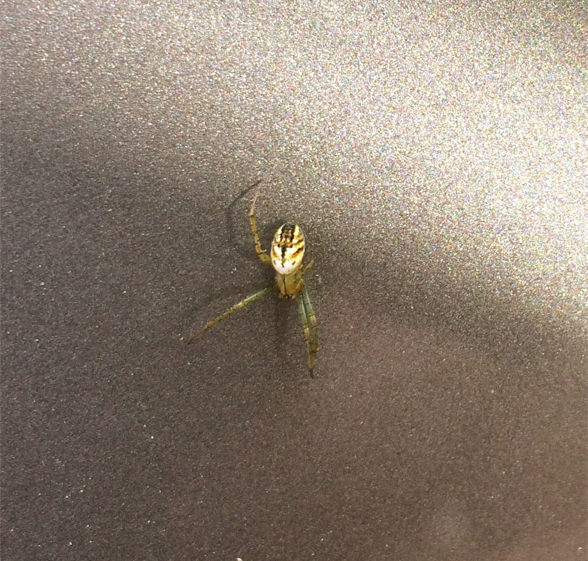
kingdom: Animalia
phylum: Arthropoda
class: Arachnida
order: Araneae
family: Araneidae
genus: Mangora
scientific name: Mangora gibberosa
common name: Lined orbweaver
